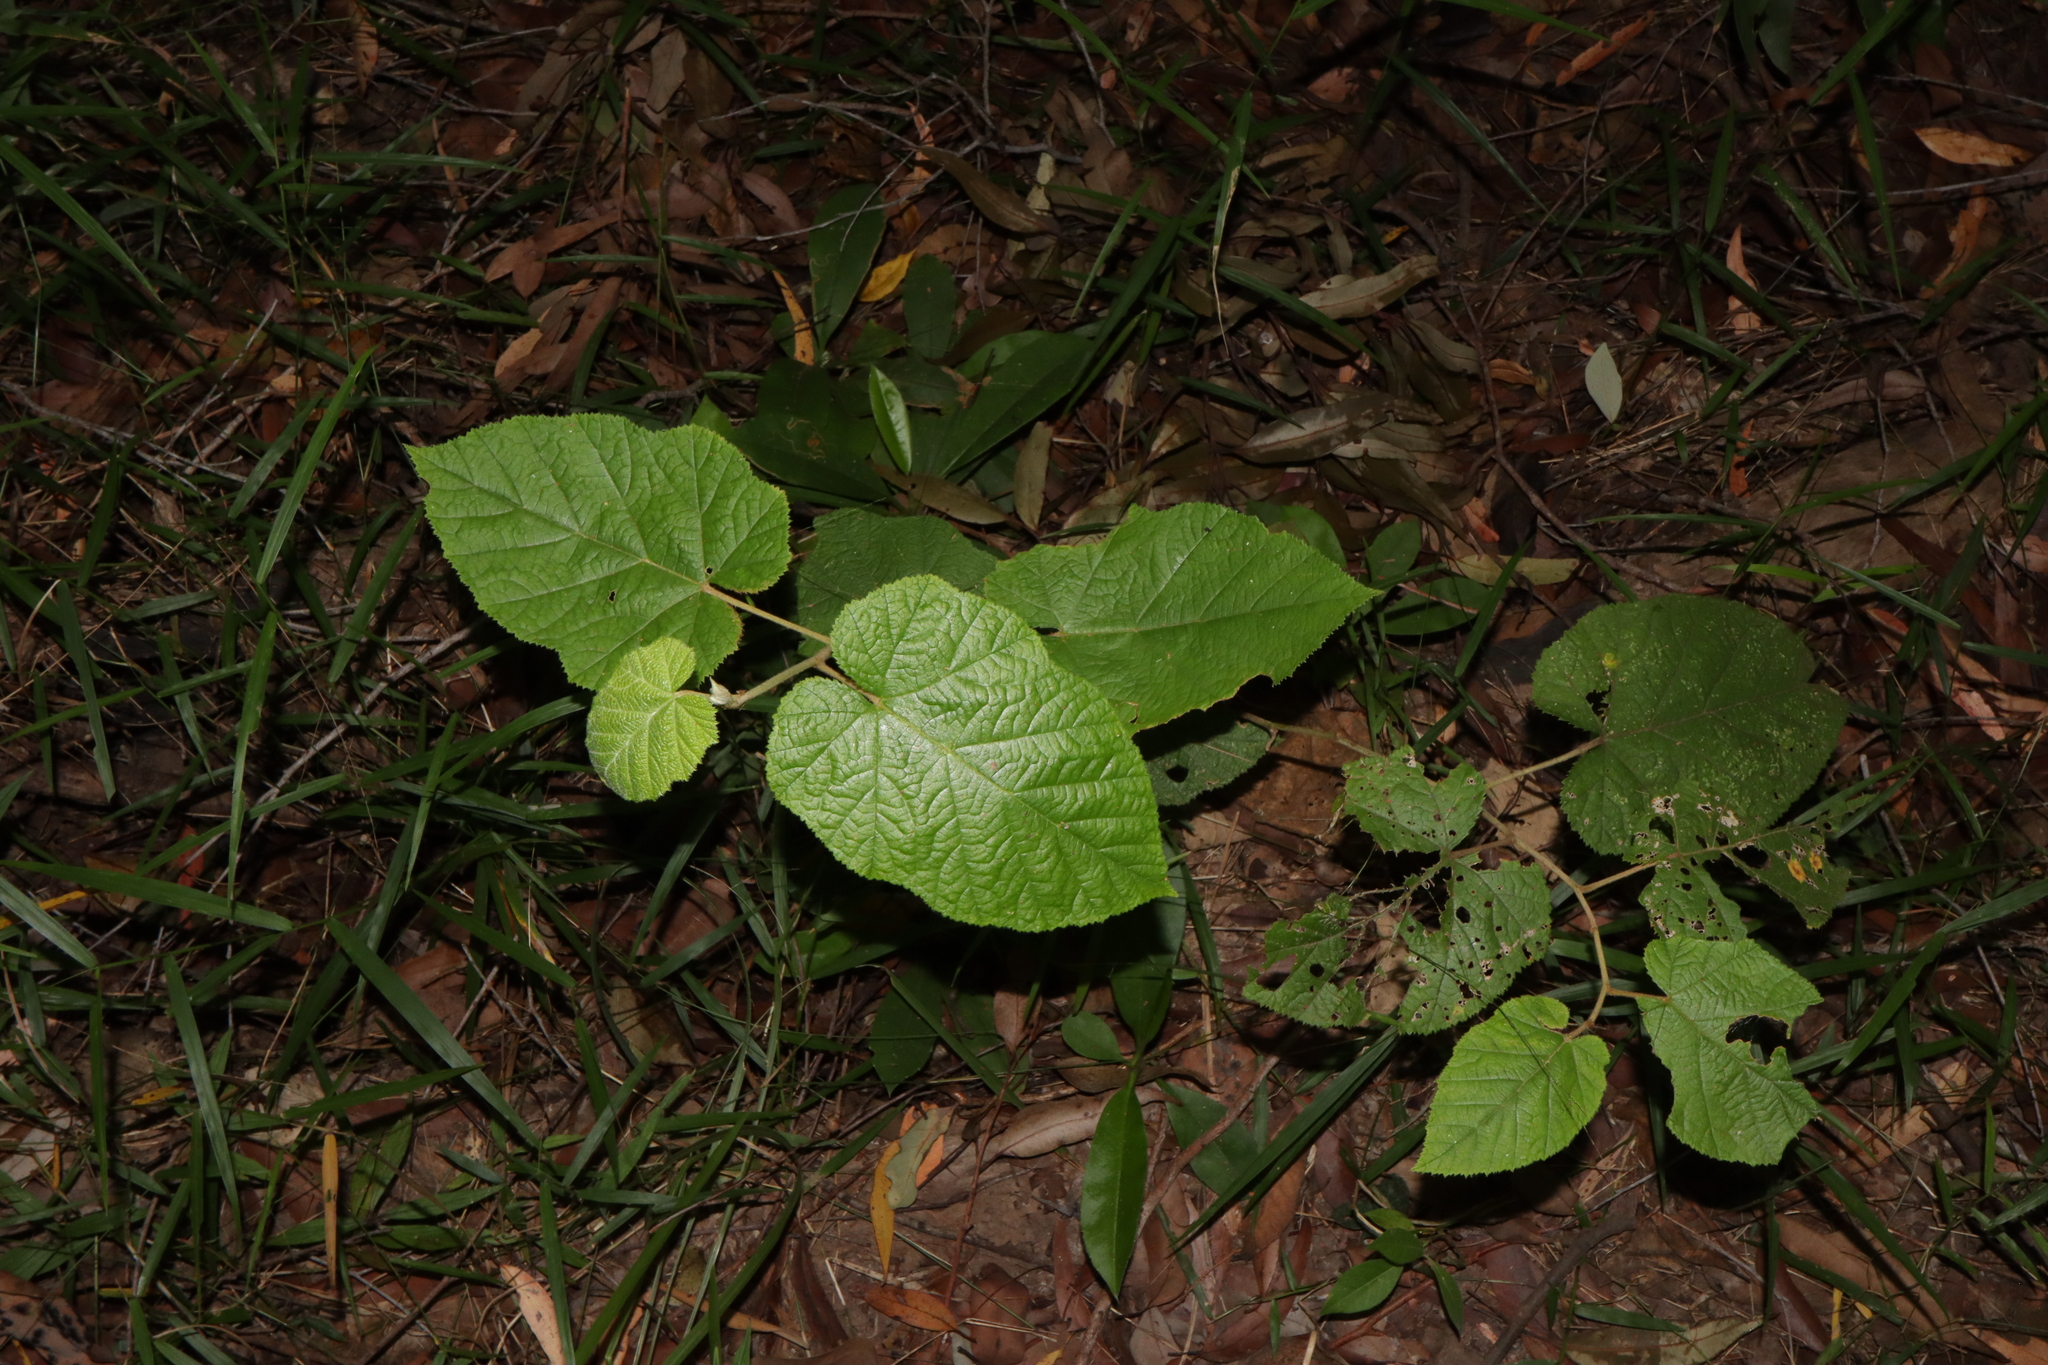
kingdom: Plantae
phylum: Tracheophyta
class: Magnoliopsida
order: Rosales
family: Rosaceae
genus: Rubus
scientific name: Rubus moluccanus
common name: Wild raspberry
